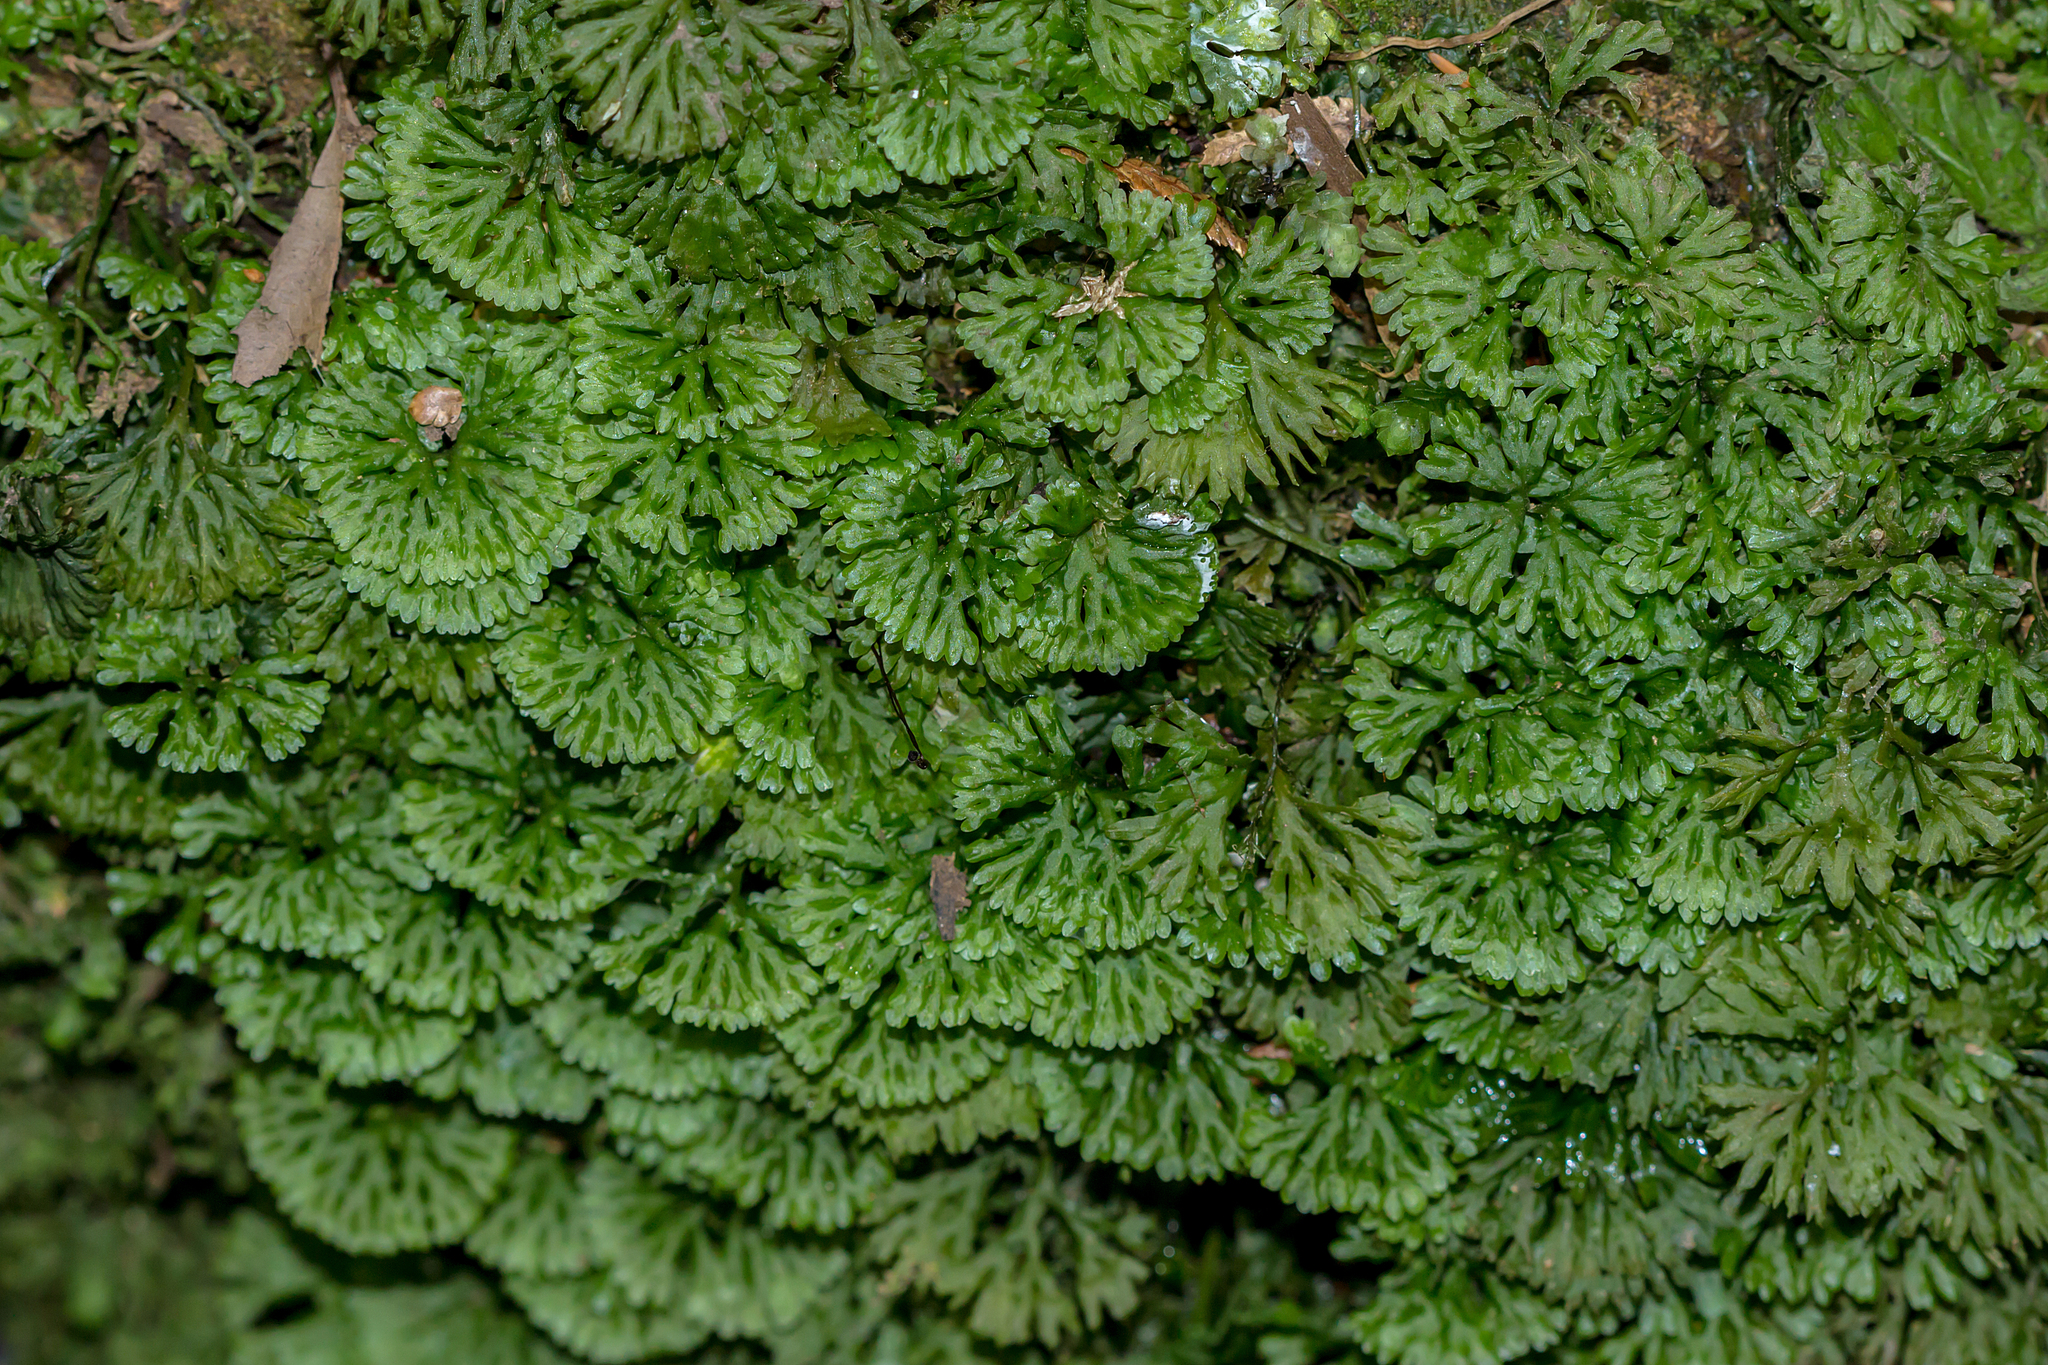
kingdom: Plantae
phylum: Marchantiophyta
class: Jungermanniopsida
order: Pallaviciniales
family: Hymenophytaceae
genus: Hymenophyton
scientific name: Hymenophyton flabellatum
